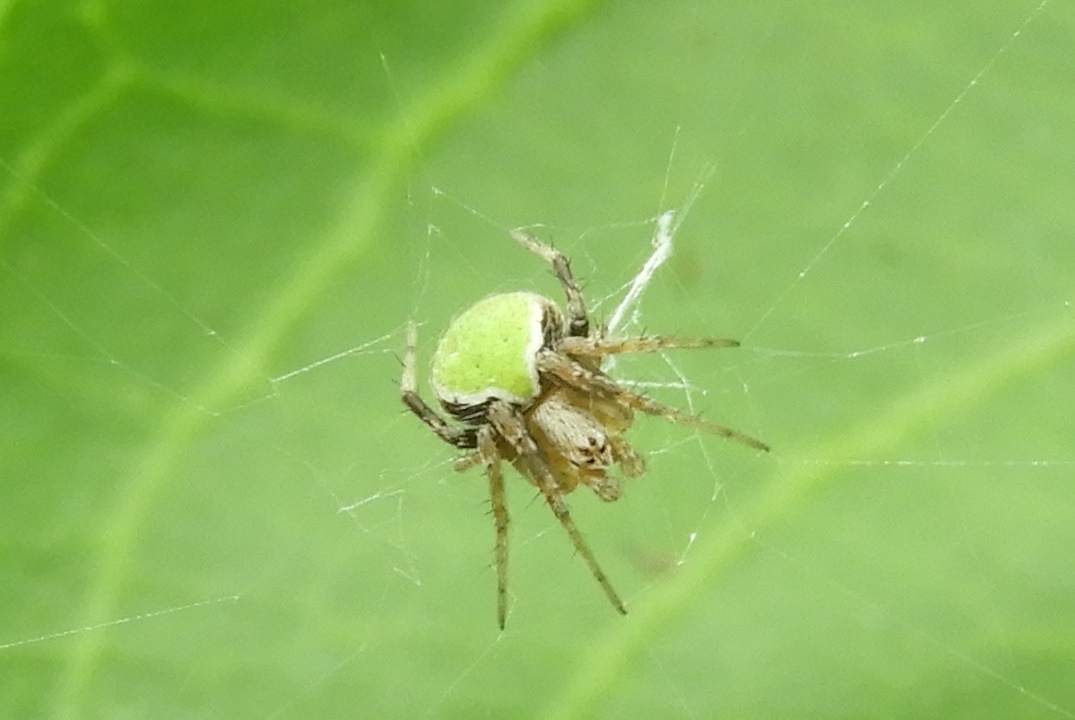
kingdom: Animalia
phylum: Arthropoda
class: Arachnida
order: Araneae
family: Araneidae
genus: Araneus
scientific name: Araneus detrimentosus
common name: Orb weavers
